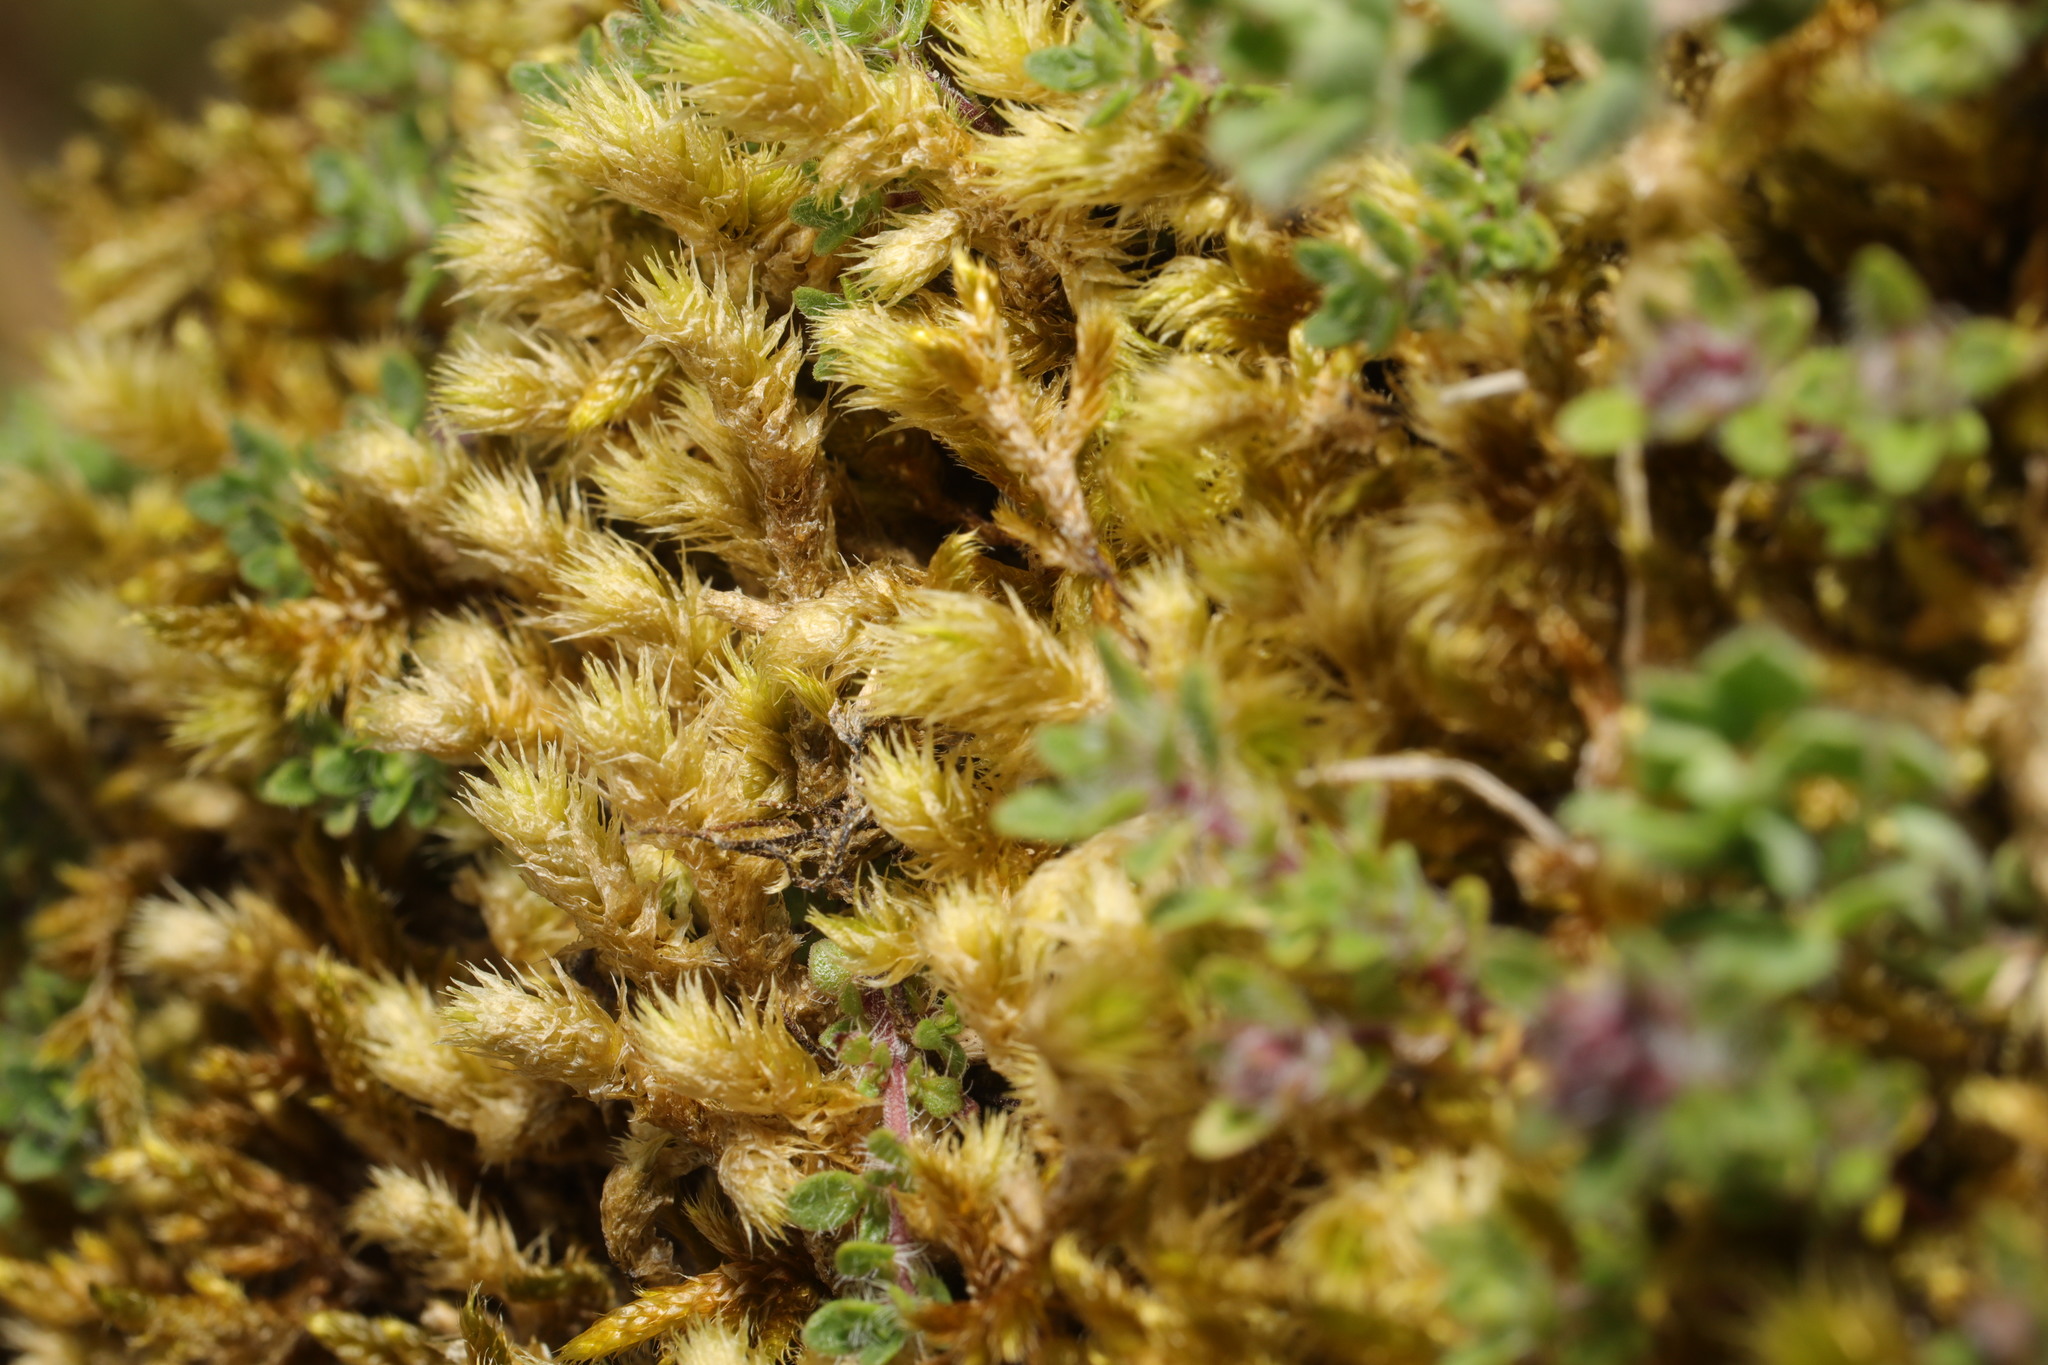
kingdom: Plantae
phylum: Bryophyta
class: Bryopsida
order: Hypnales
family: Hylocomiaceae
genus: Hylocomiadelphus
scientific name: Hylocomiadelphus triquetrus
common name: Rough goose neck moss
